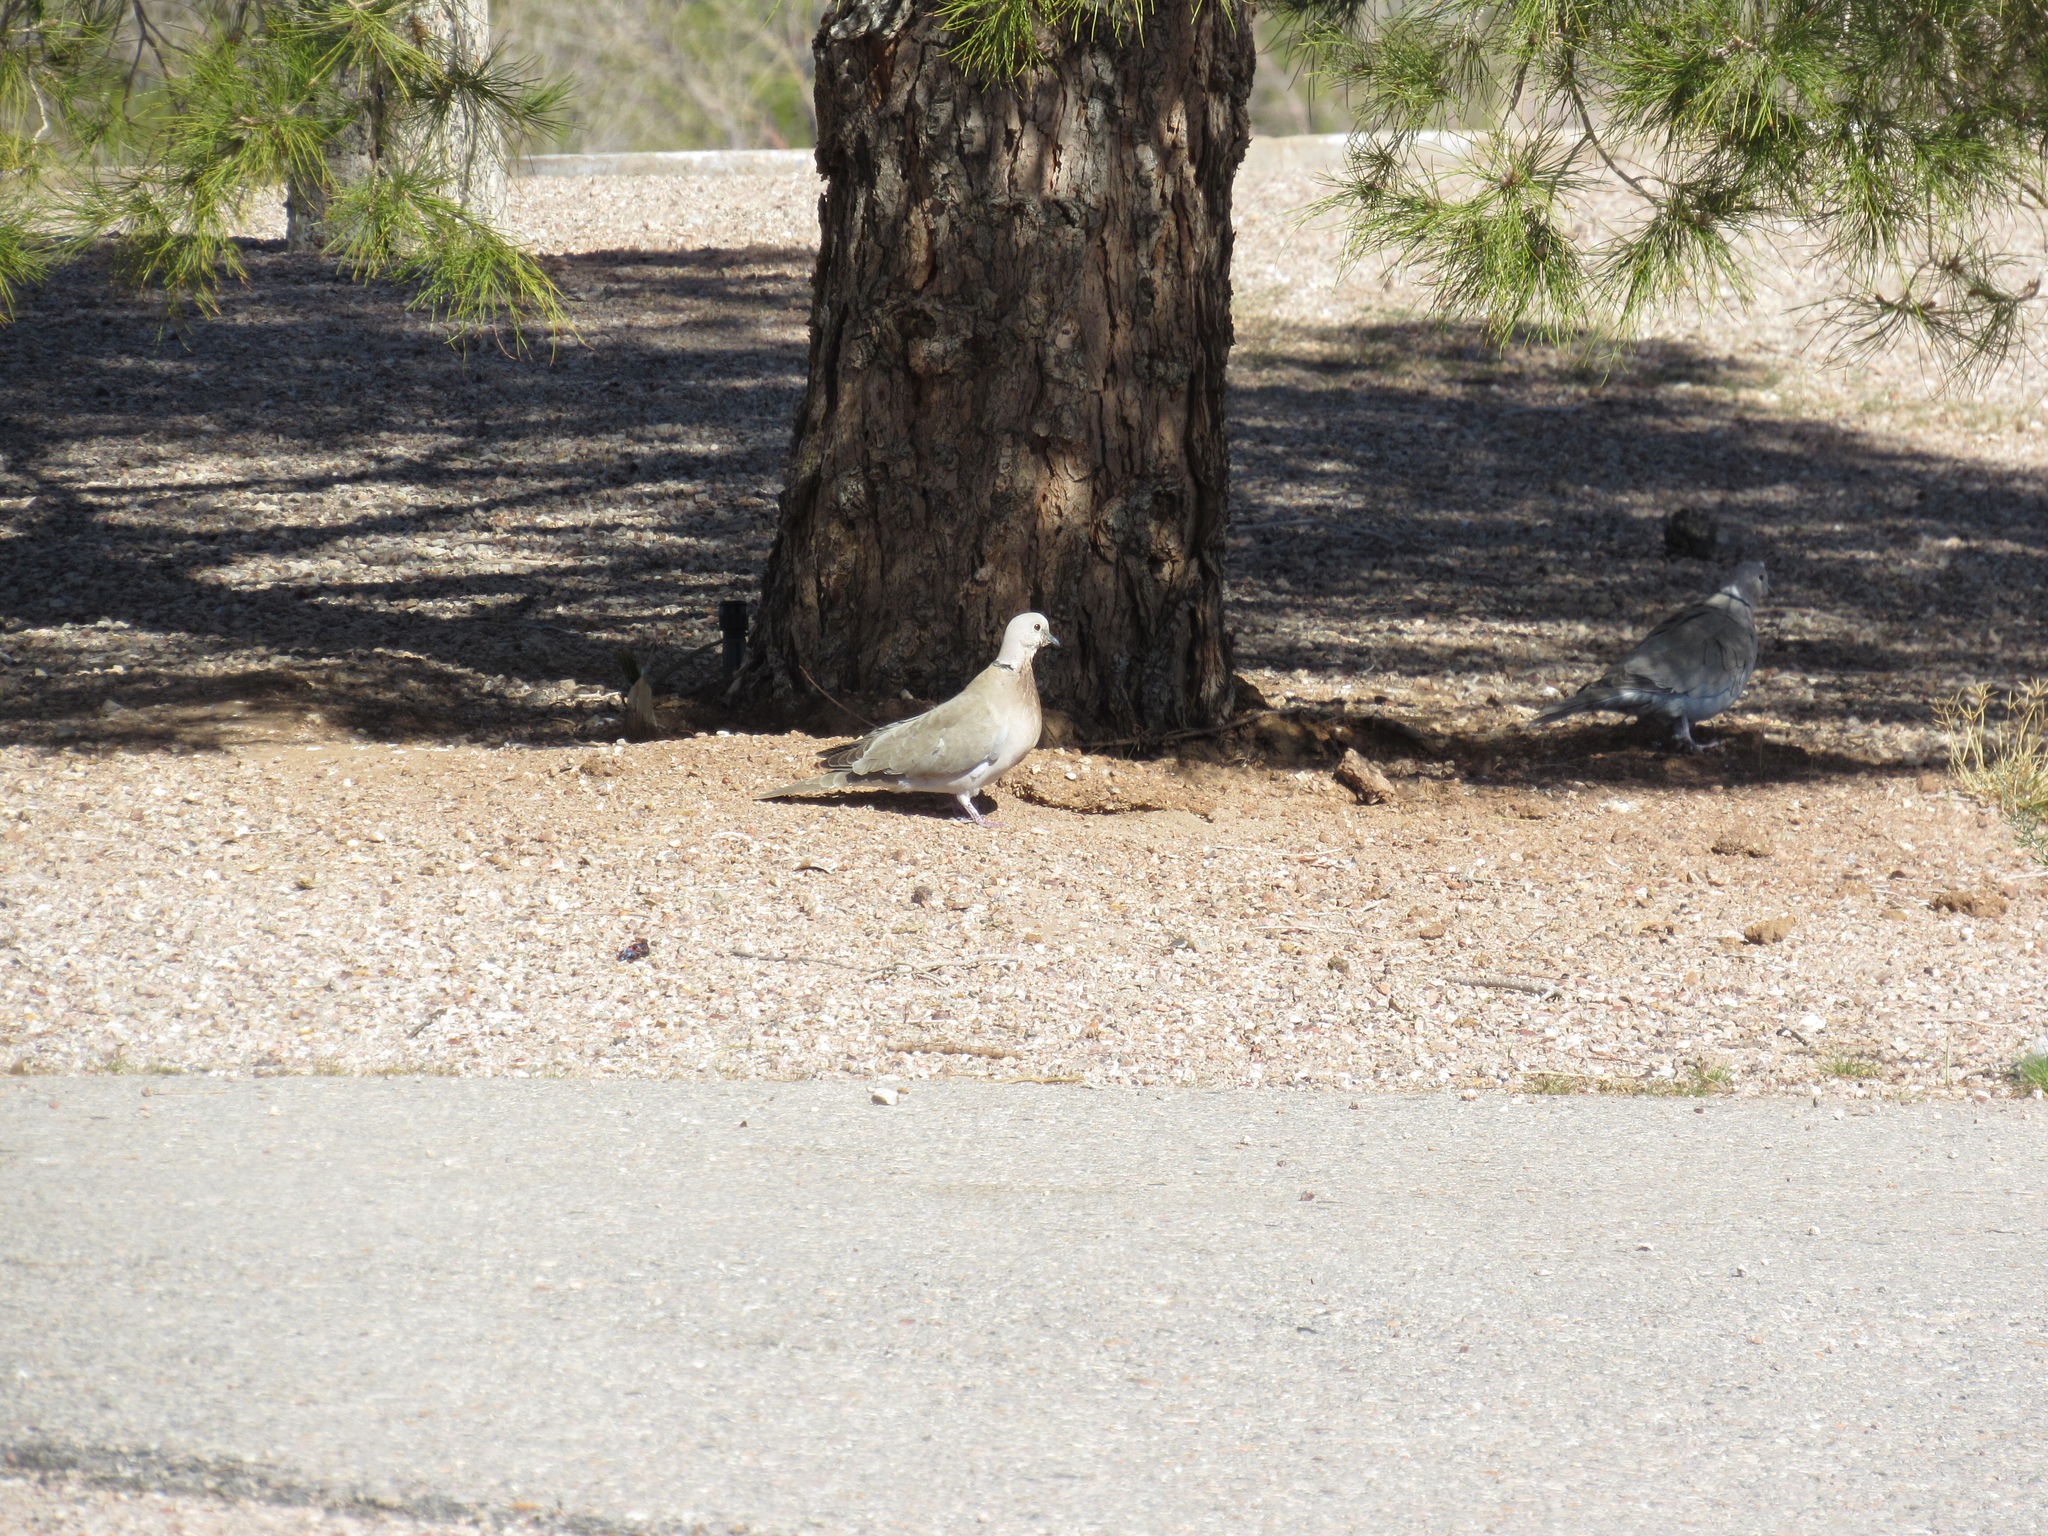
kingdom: Animalia
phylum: Chordata
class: Aves
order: Columbiformes
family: Columbidae
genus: Streptopelia
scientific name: Streptopelia decaocto
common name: Eurasian collared dove
